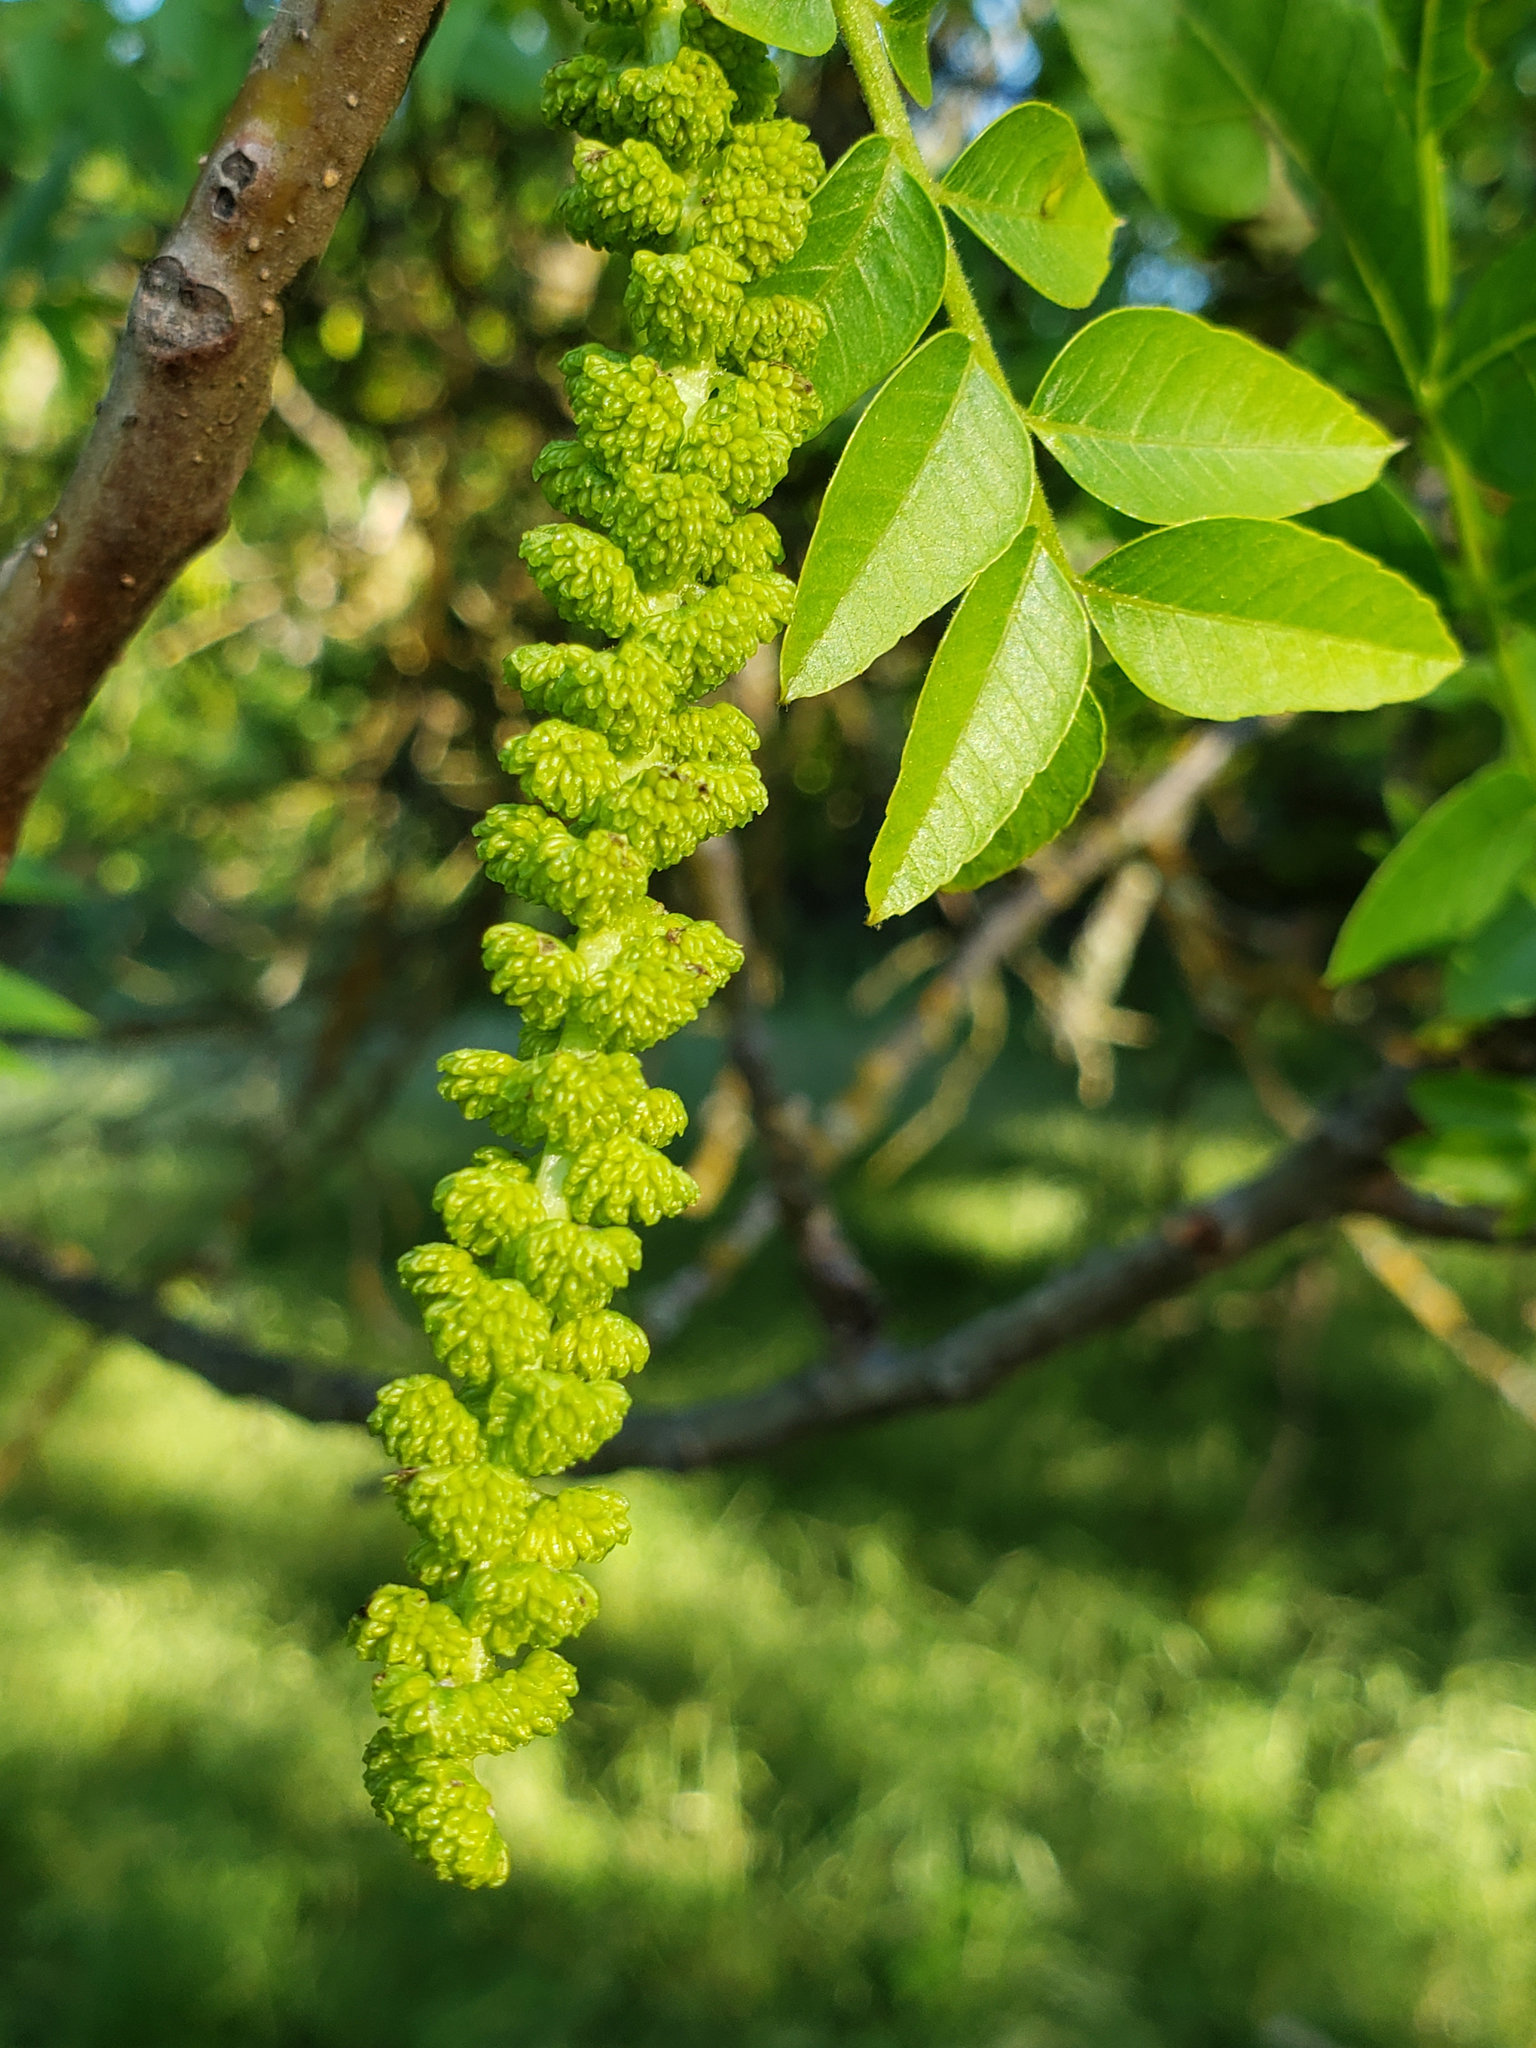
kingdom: Plantae
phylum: Tracheophyta
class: Magnoliopsida
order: Fagales
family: Juglandaceae
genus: Juglans
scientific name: Juglans hindsii
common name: Northern california black walnut
